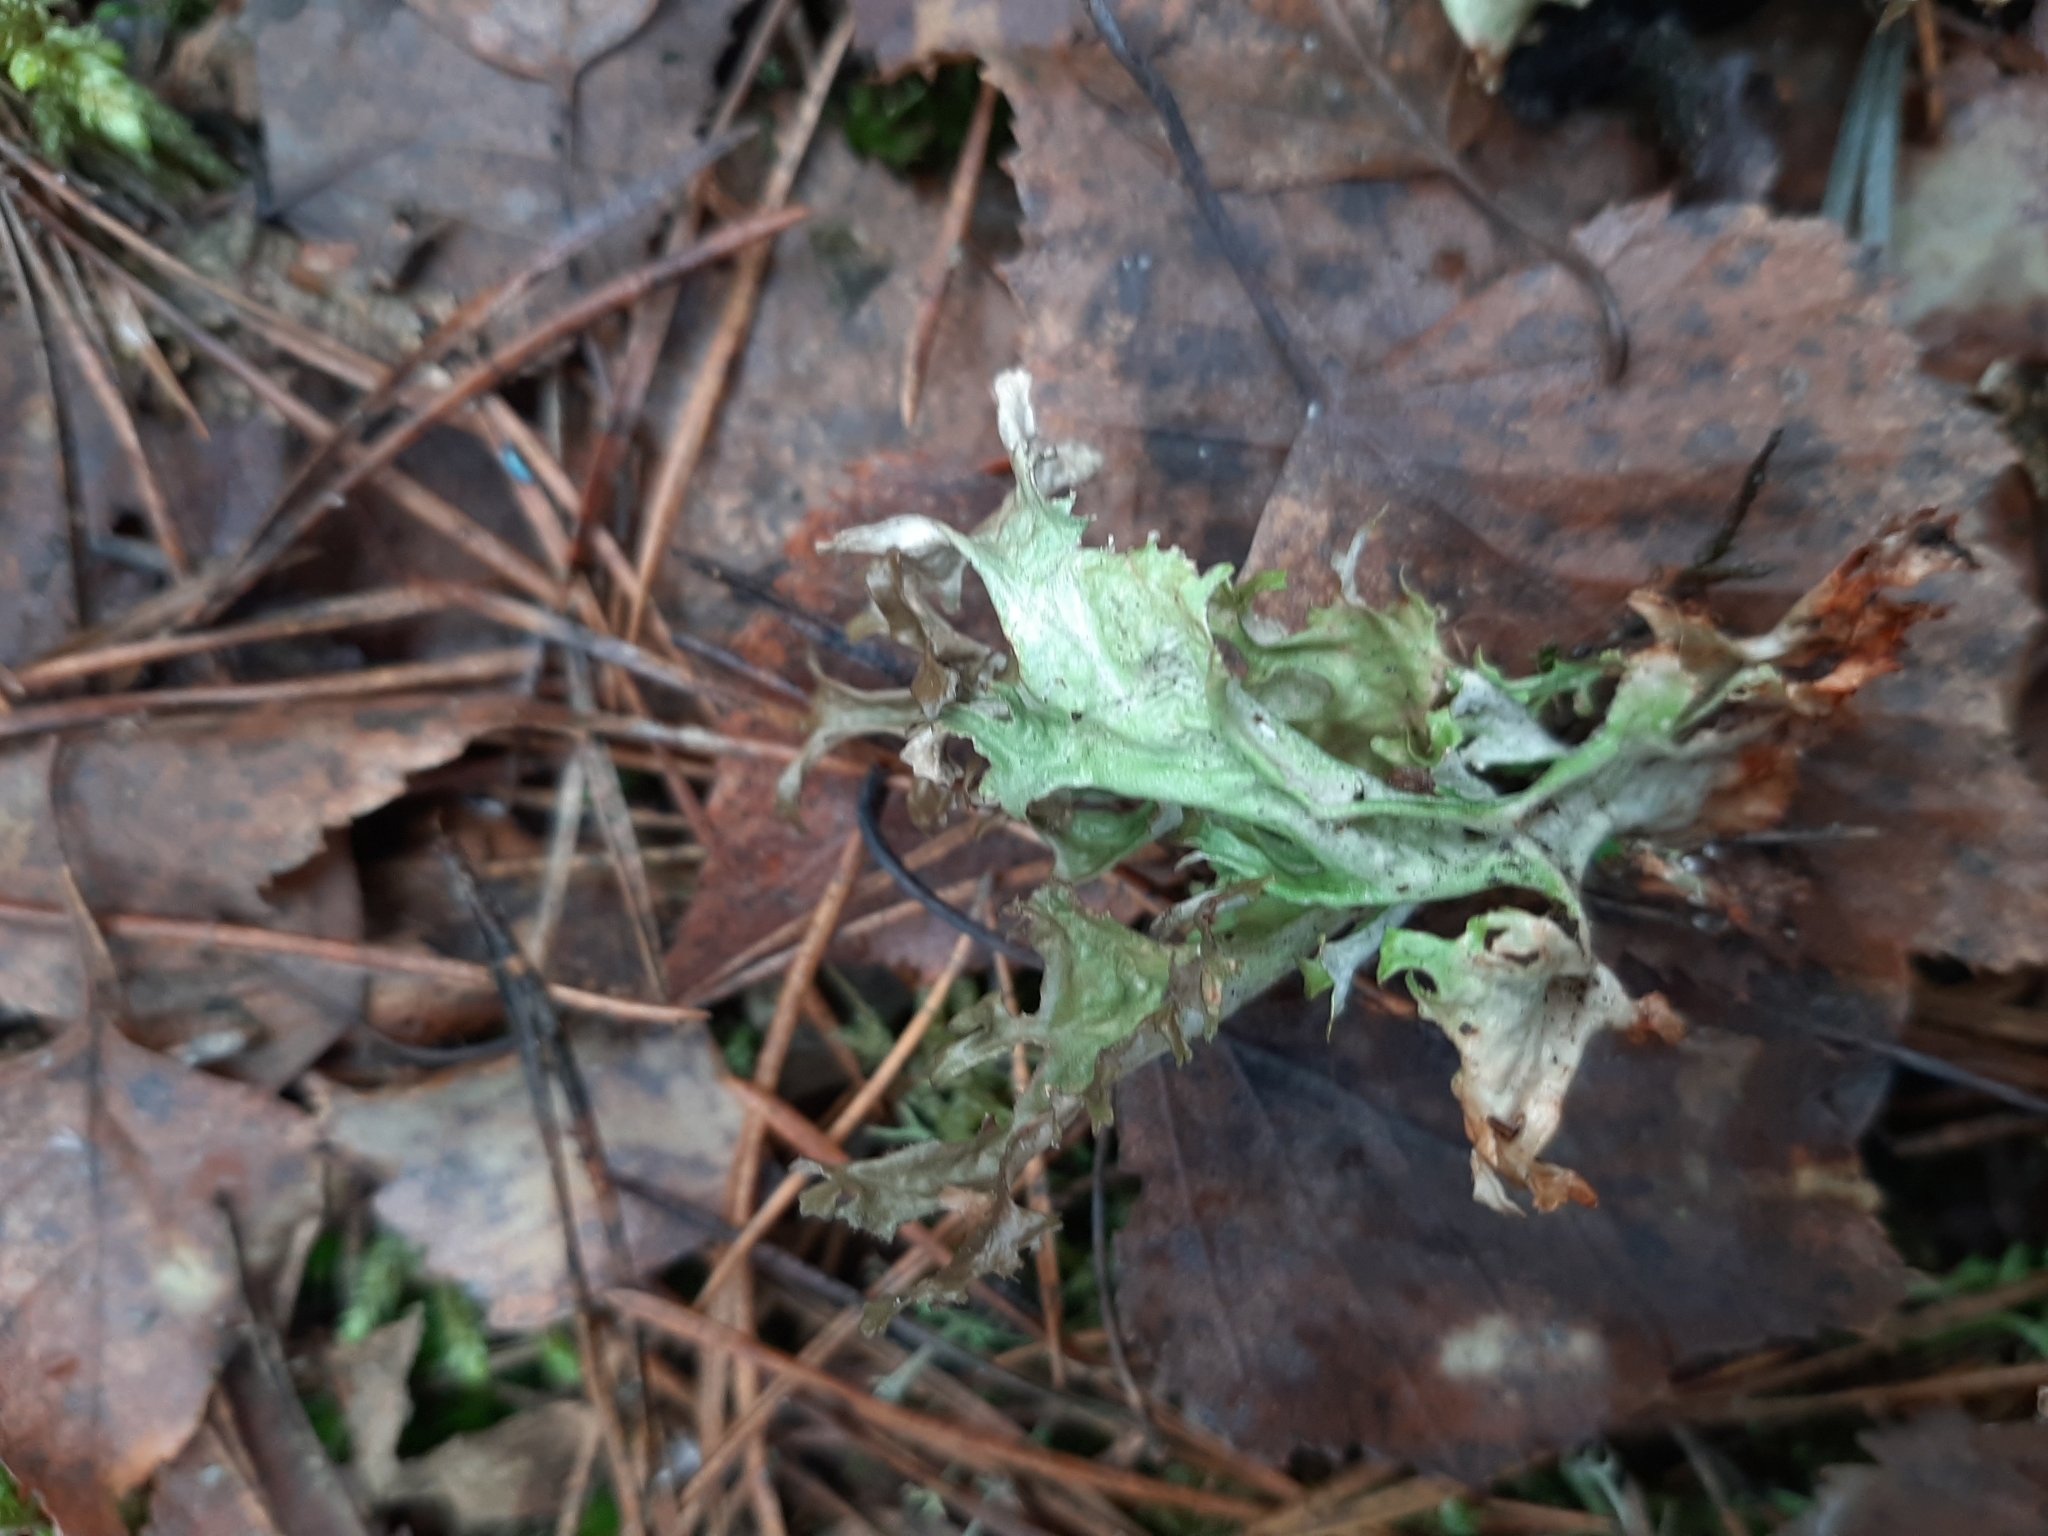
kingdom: Fungi
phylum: Ascomycota
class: Lecanoromycetes
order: Lecanorales
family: Parmeliaceae
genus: Cetraria
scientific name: Cetraria islandica
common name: Iceland lichen
